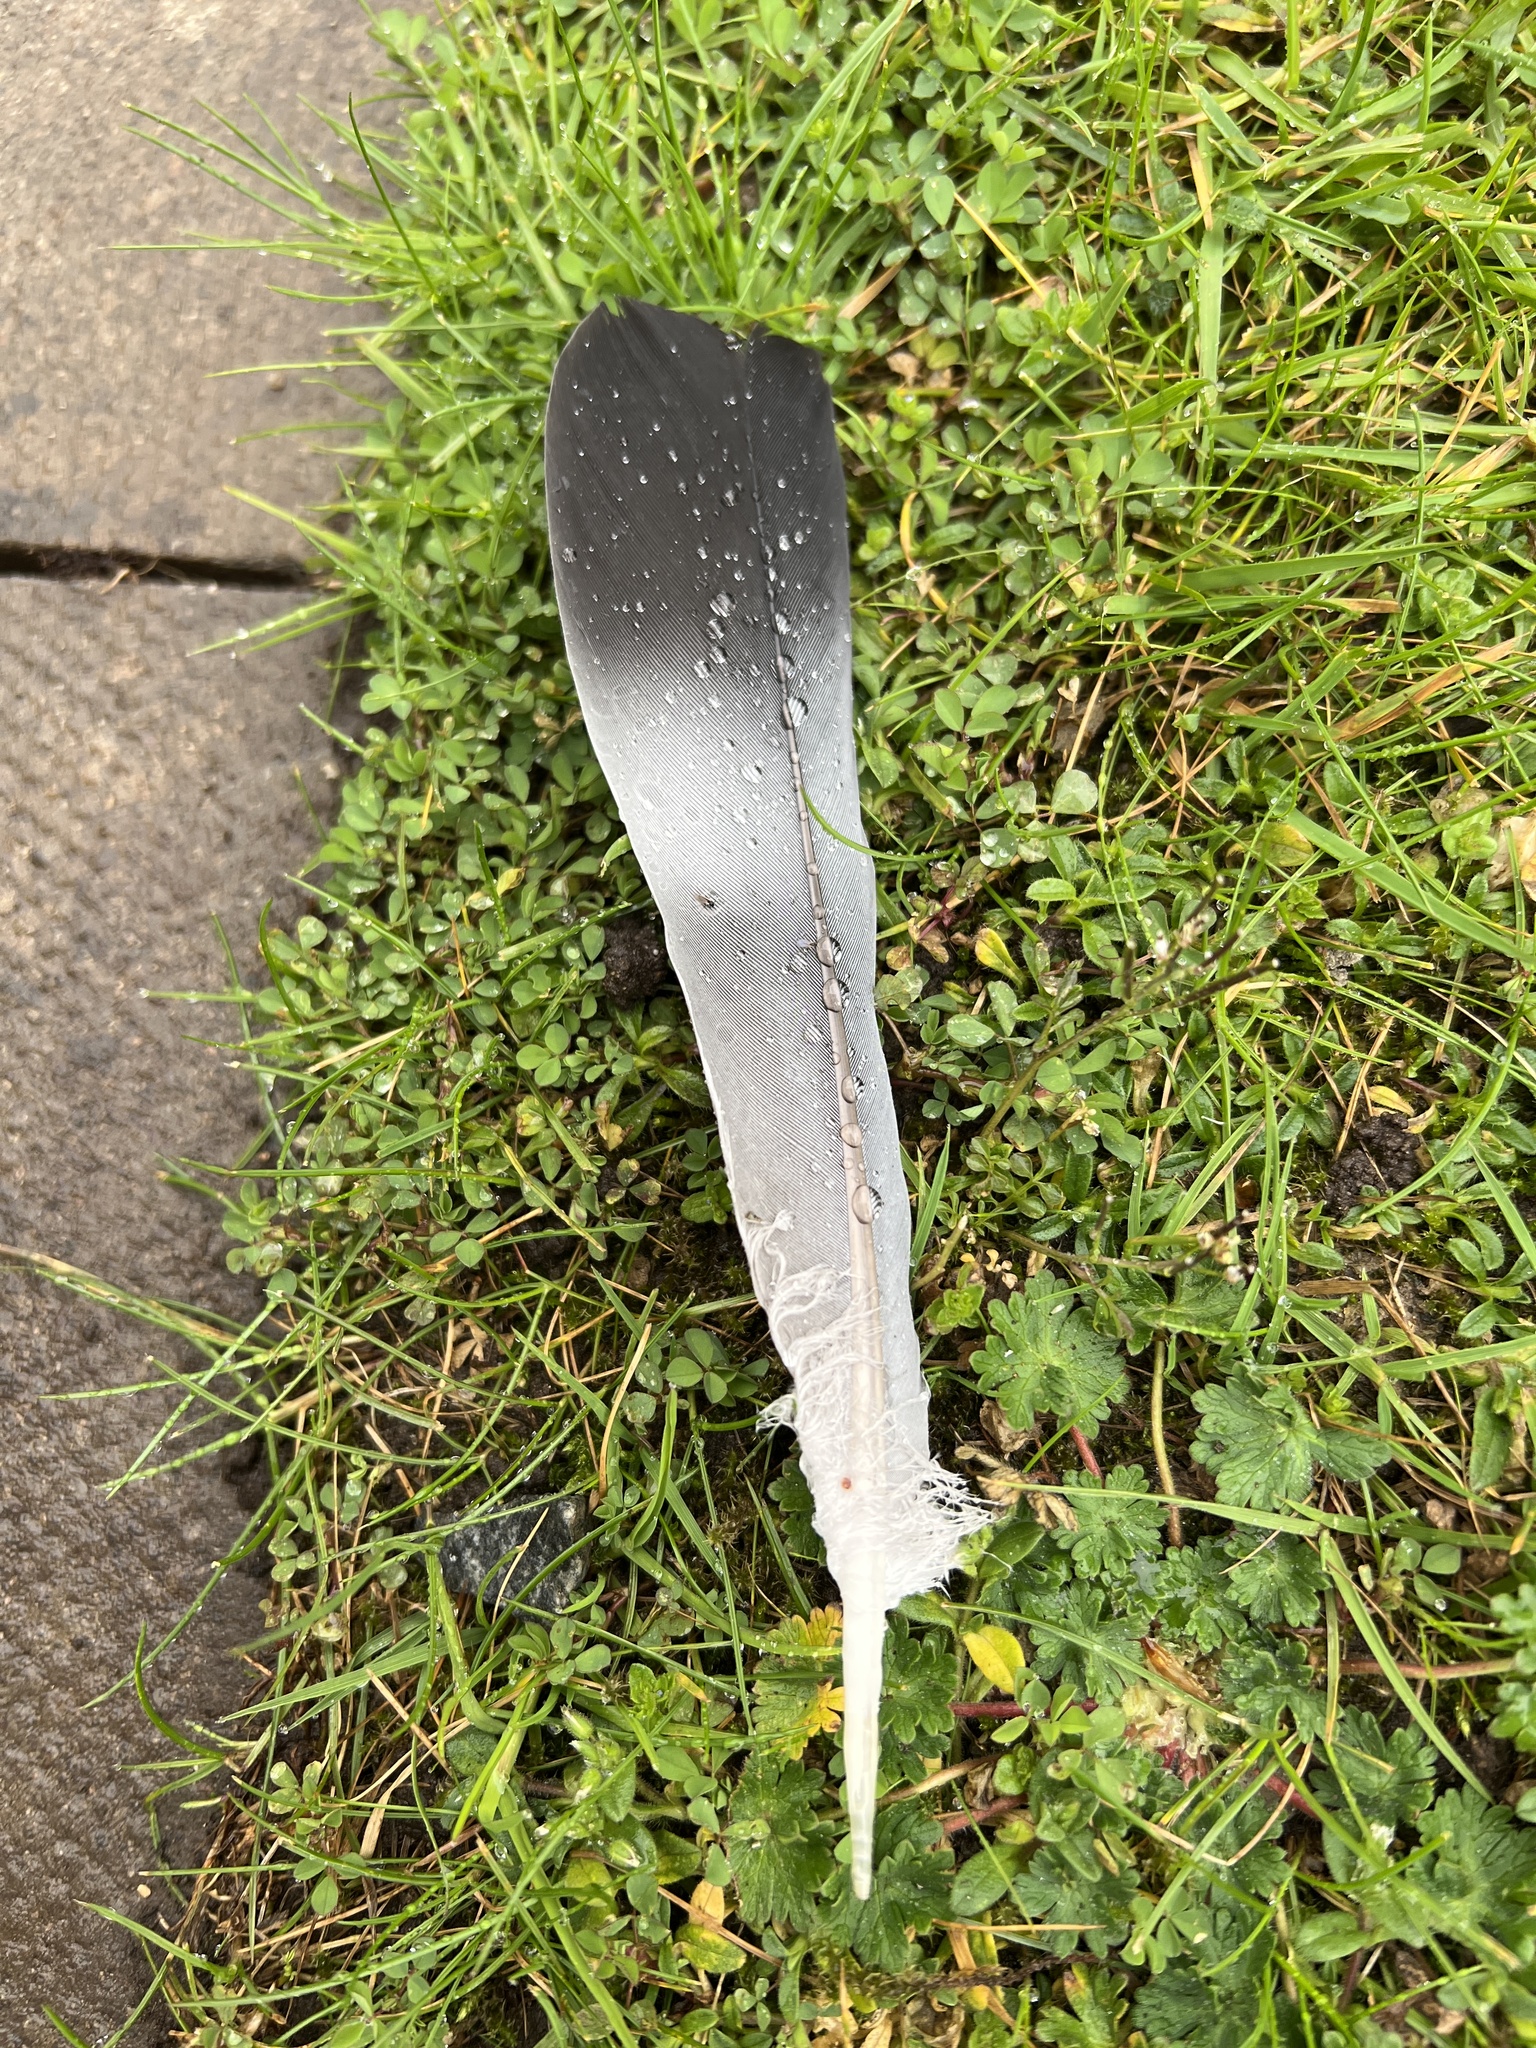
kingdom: Animalia
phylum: Chordata
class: Aves
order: Columbiformes
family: Columbidae
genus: Columba
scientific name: Columba palumbus
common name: Common wood pigeon
